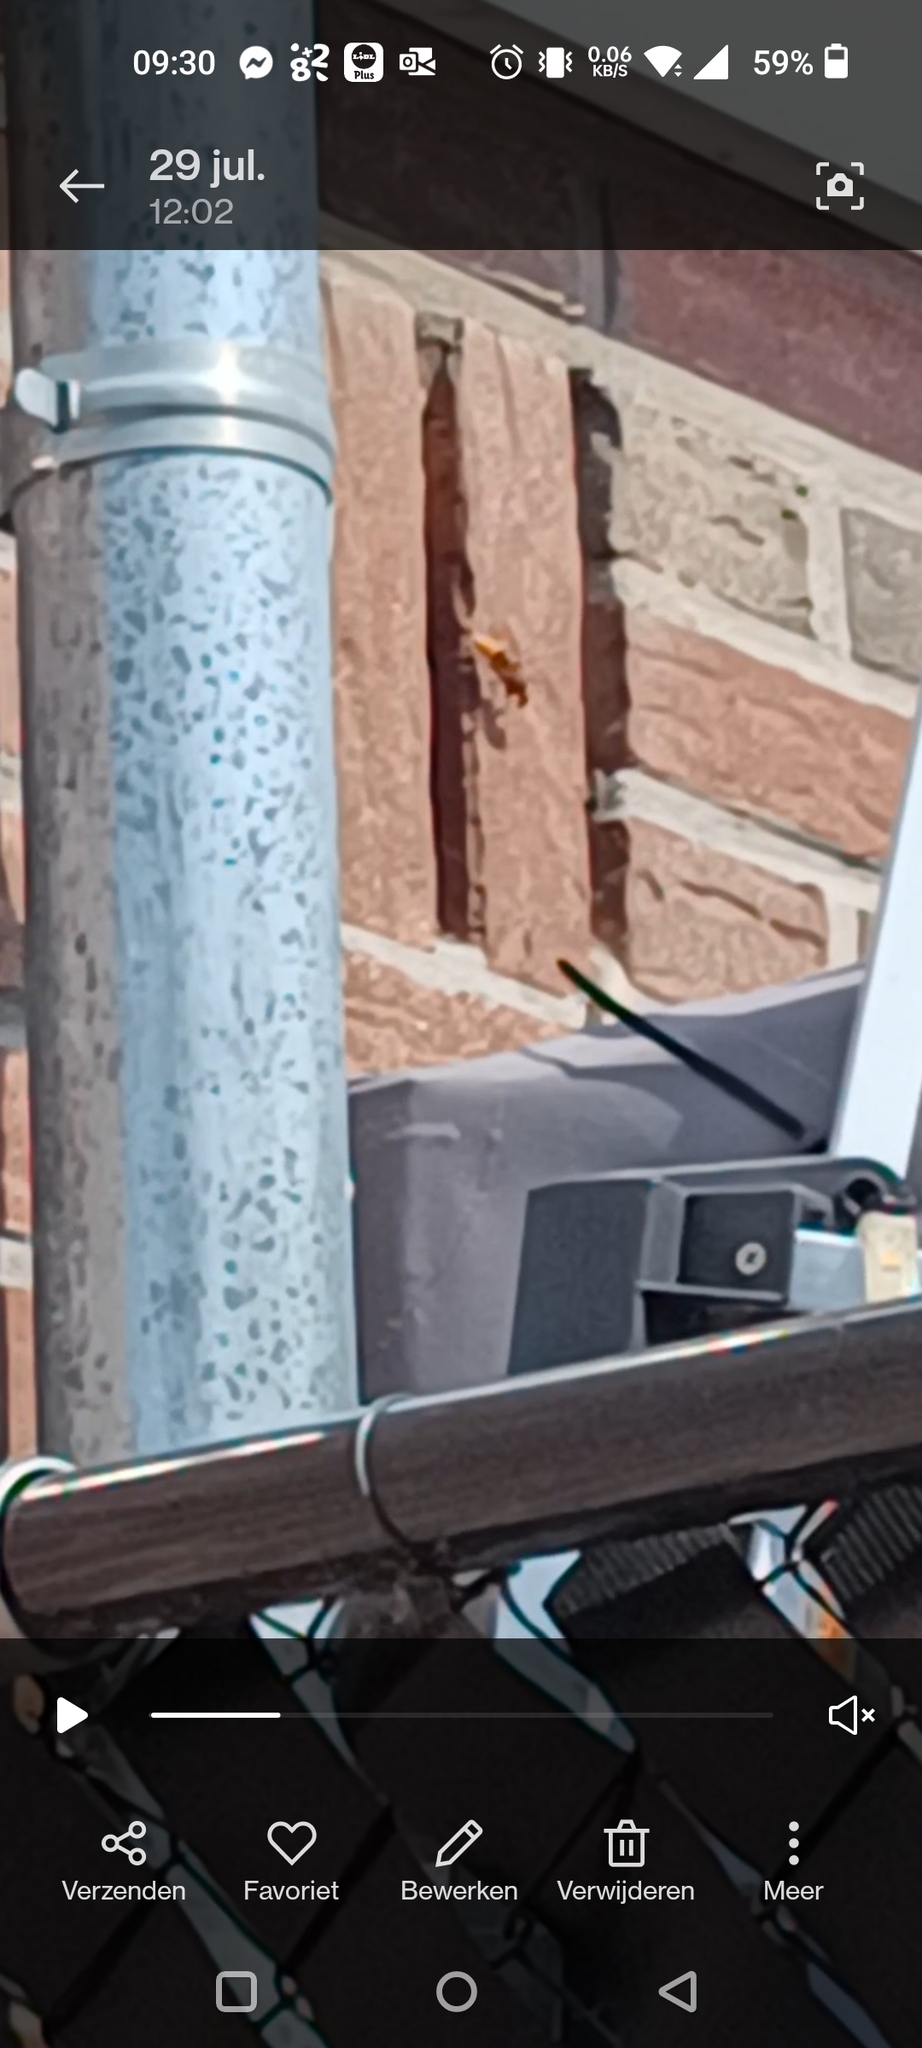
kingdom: Animalia
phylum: Arthropoda
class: Insecta
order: Hymenoptera
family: Vespidae
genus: Vespa
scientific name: Vespa crabro
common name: Hornet
